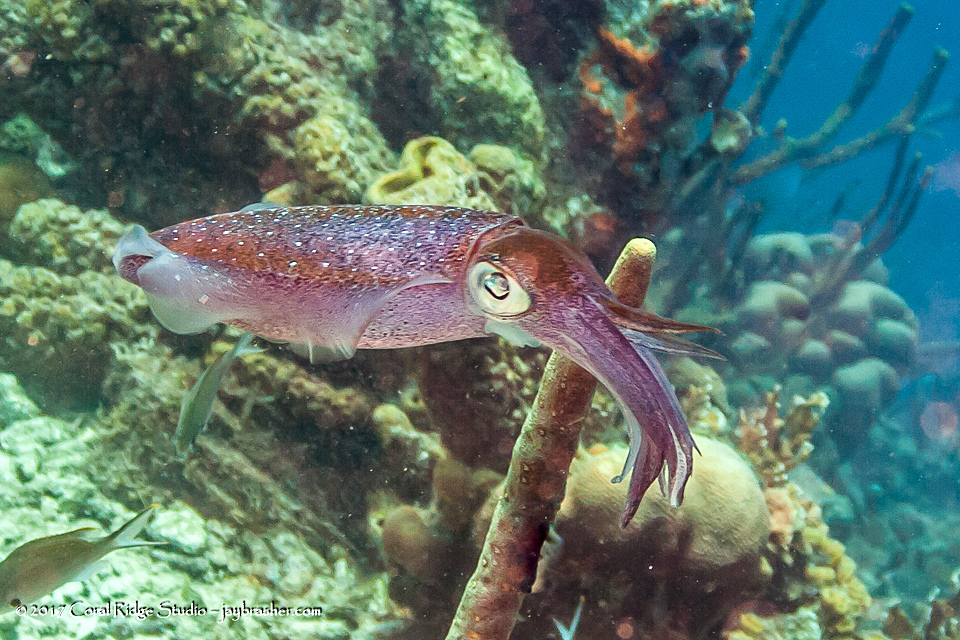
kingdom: Animalia
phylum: Mollusca
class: Cephalopoda
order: Myopsida
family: Loliginidae
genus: Sepioteuthis
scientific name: Sepioteuthis sepioidea
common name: Caribbean reef squid
